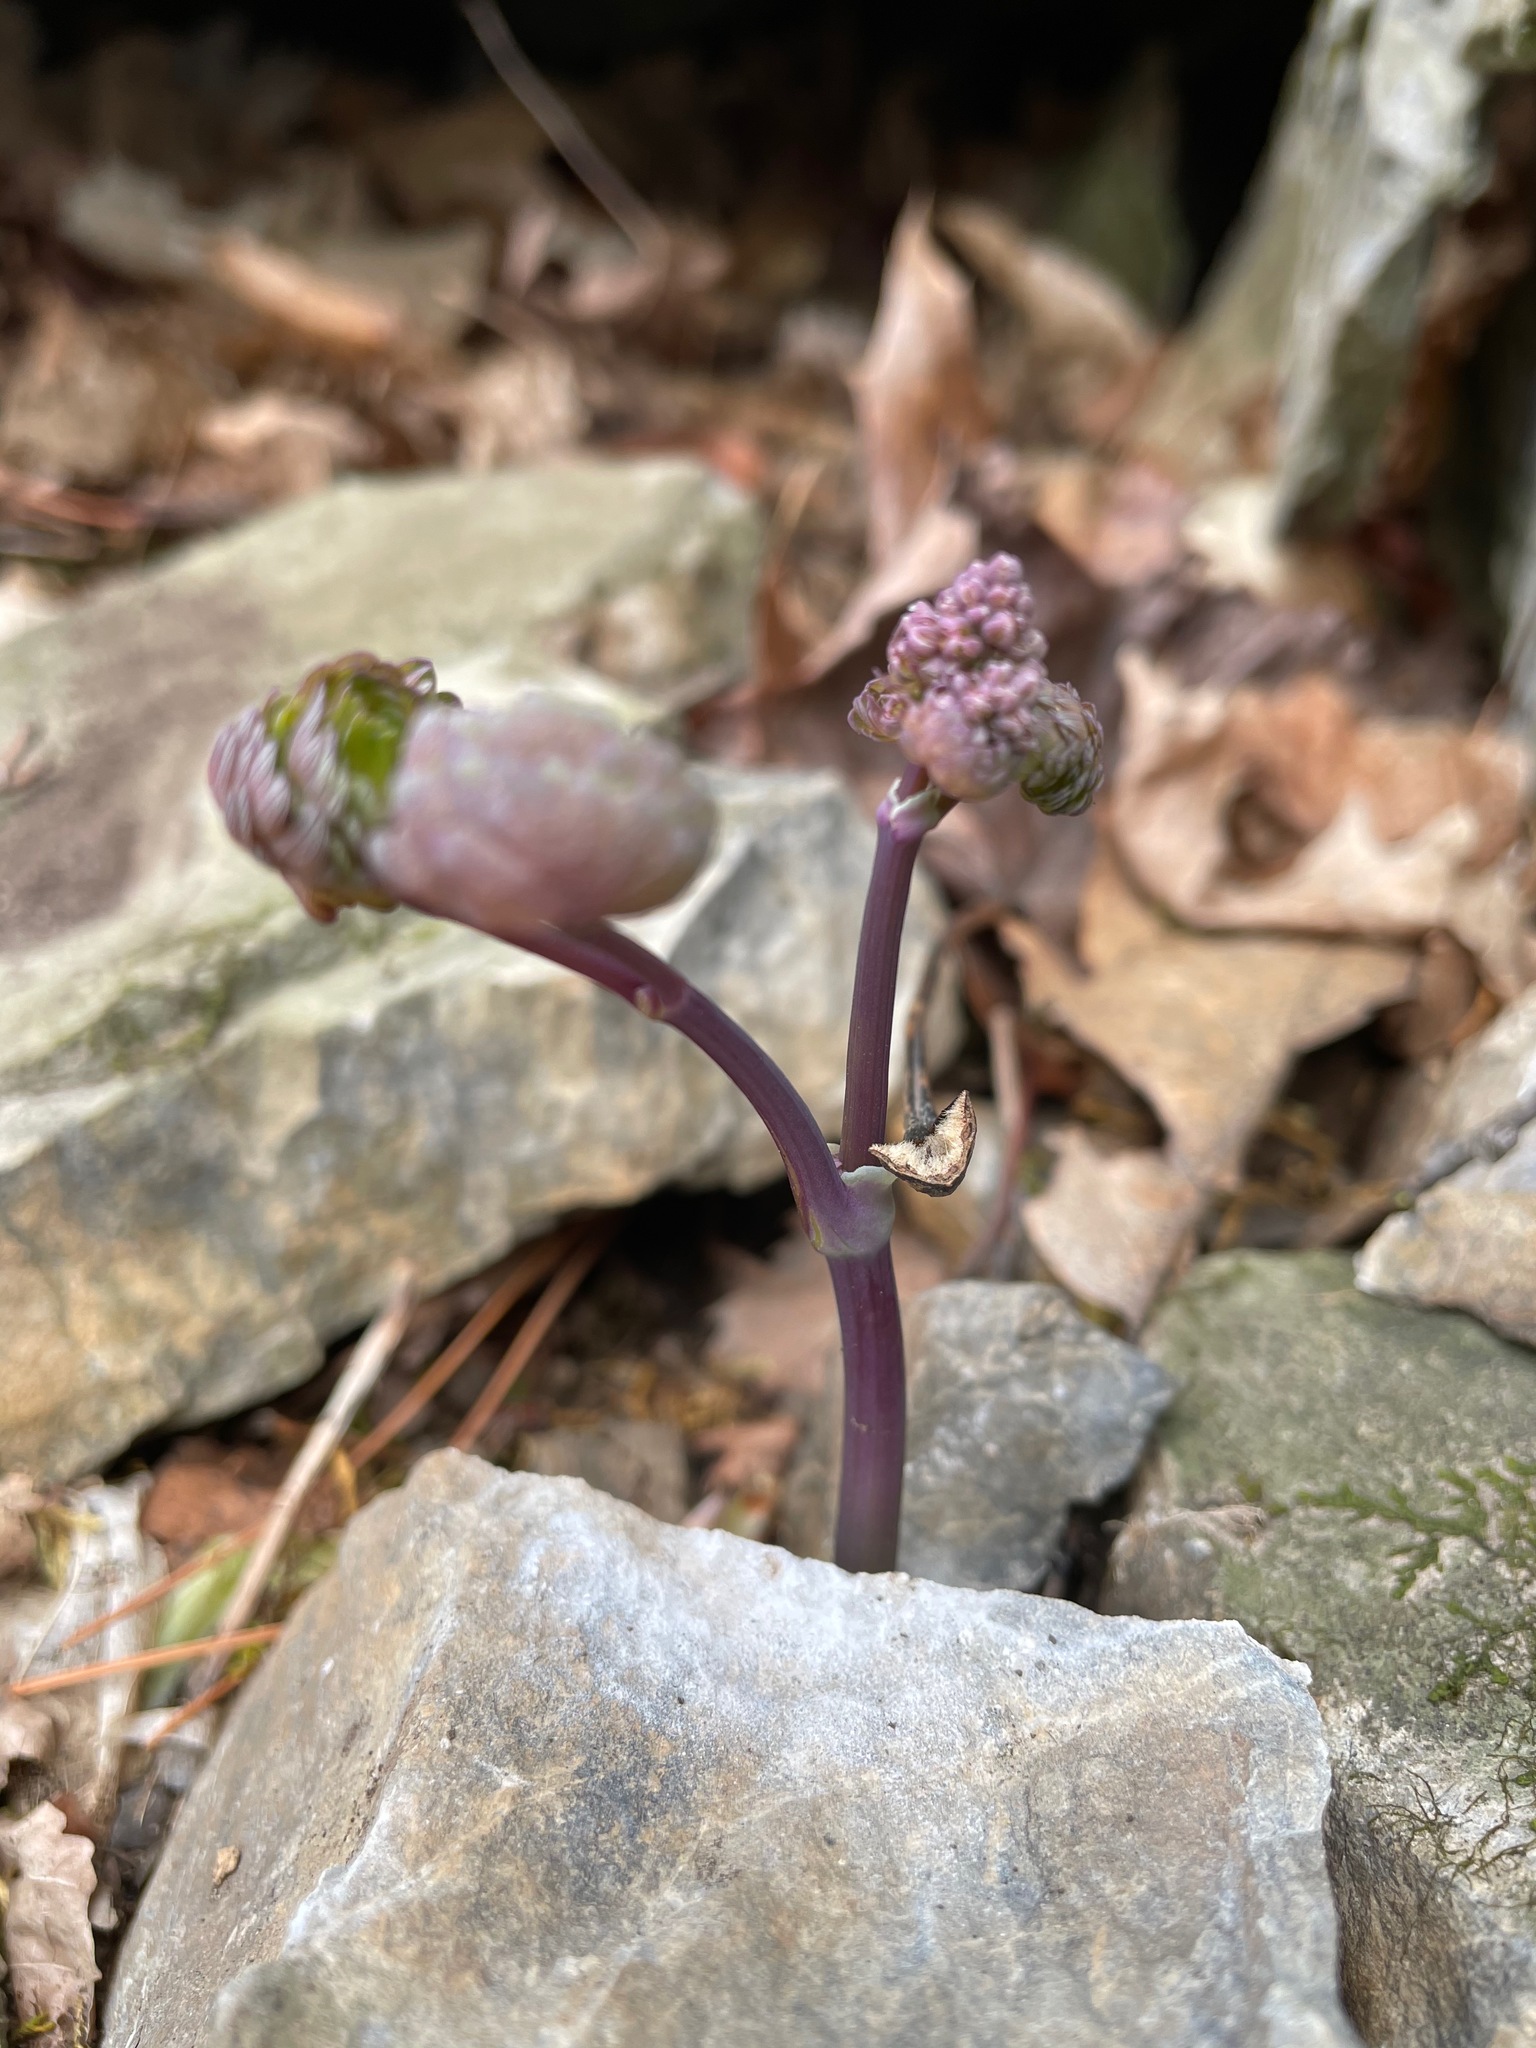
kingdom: Plantae
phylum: Tracheophyta
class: Magnoliopsida
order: Ranunculales
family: Ranunculaceae
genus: Thalictrum
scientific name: Thalictrum dioicum
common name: Early meadow-rue
